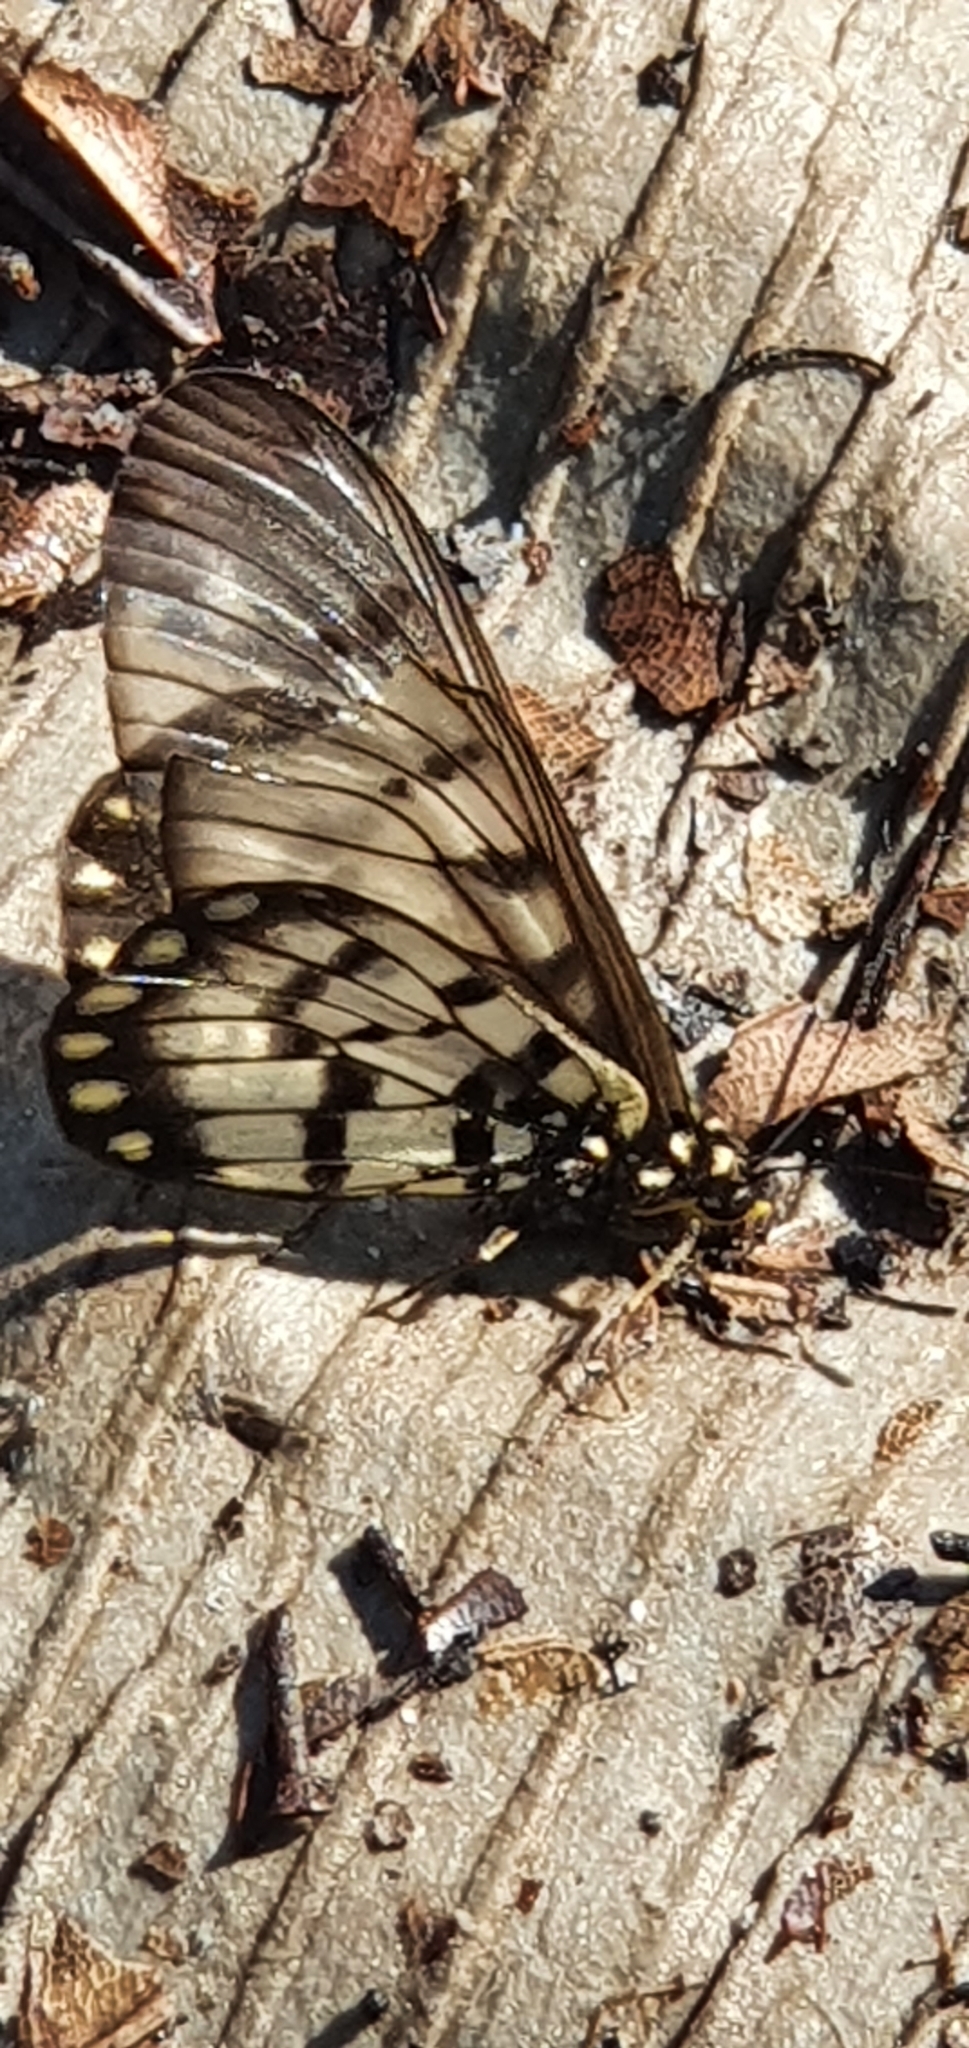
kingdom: Animalia
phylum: Arthropoda
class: Insecta
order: Lepidoptera
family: Nymphalidae
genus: Acraea
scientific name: Acraea andromacha
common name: Glasswing
